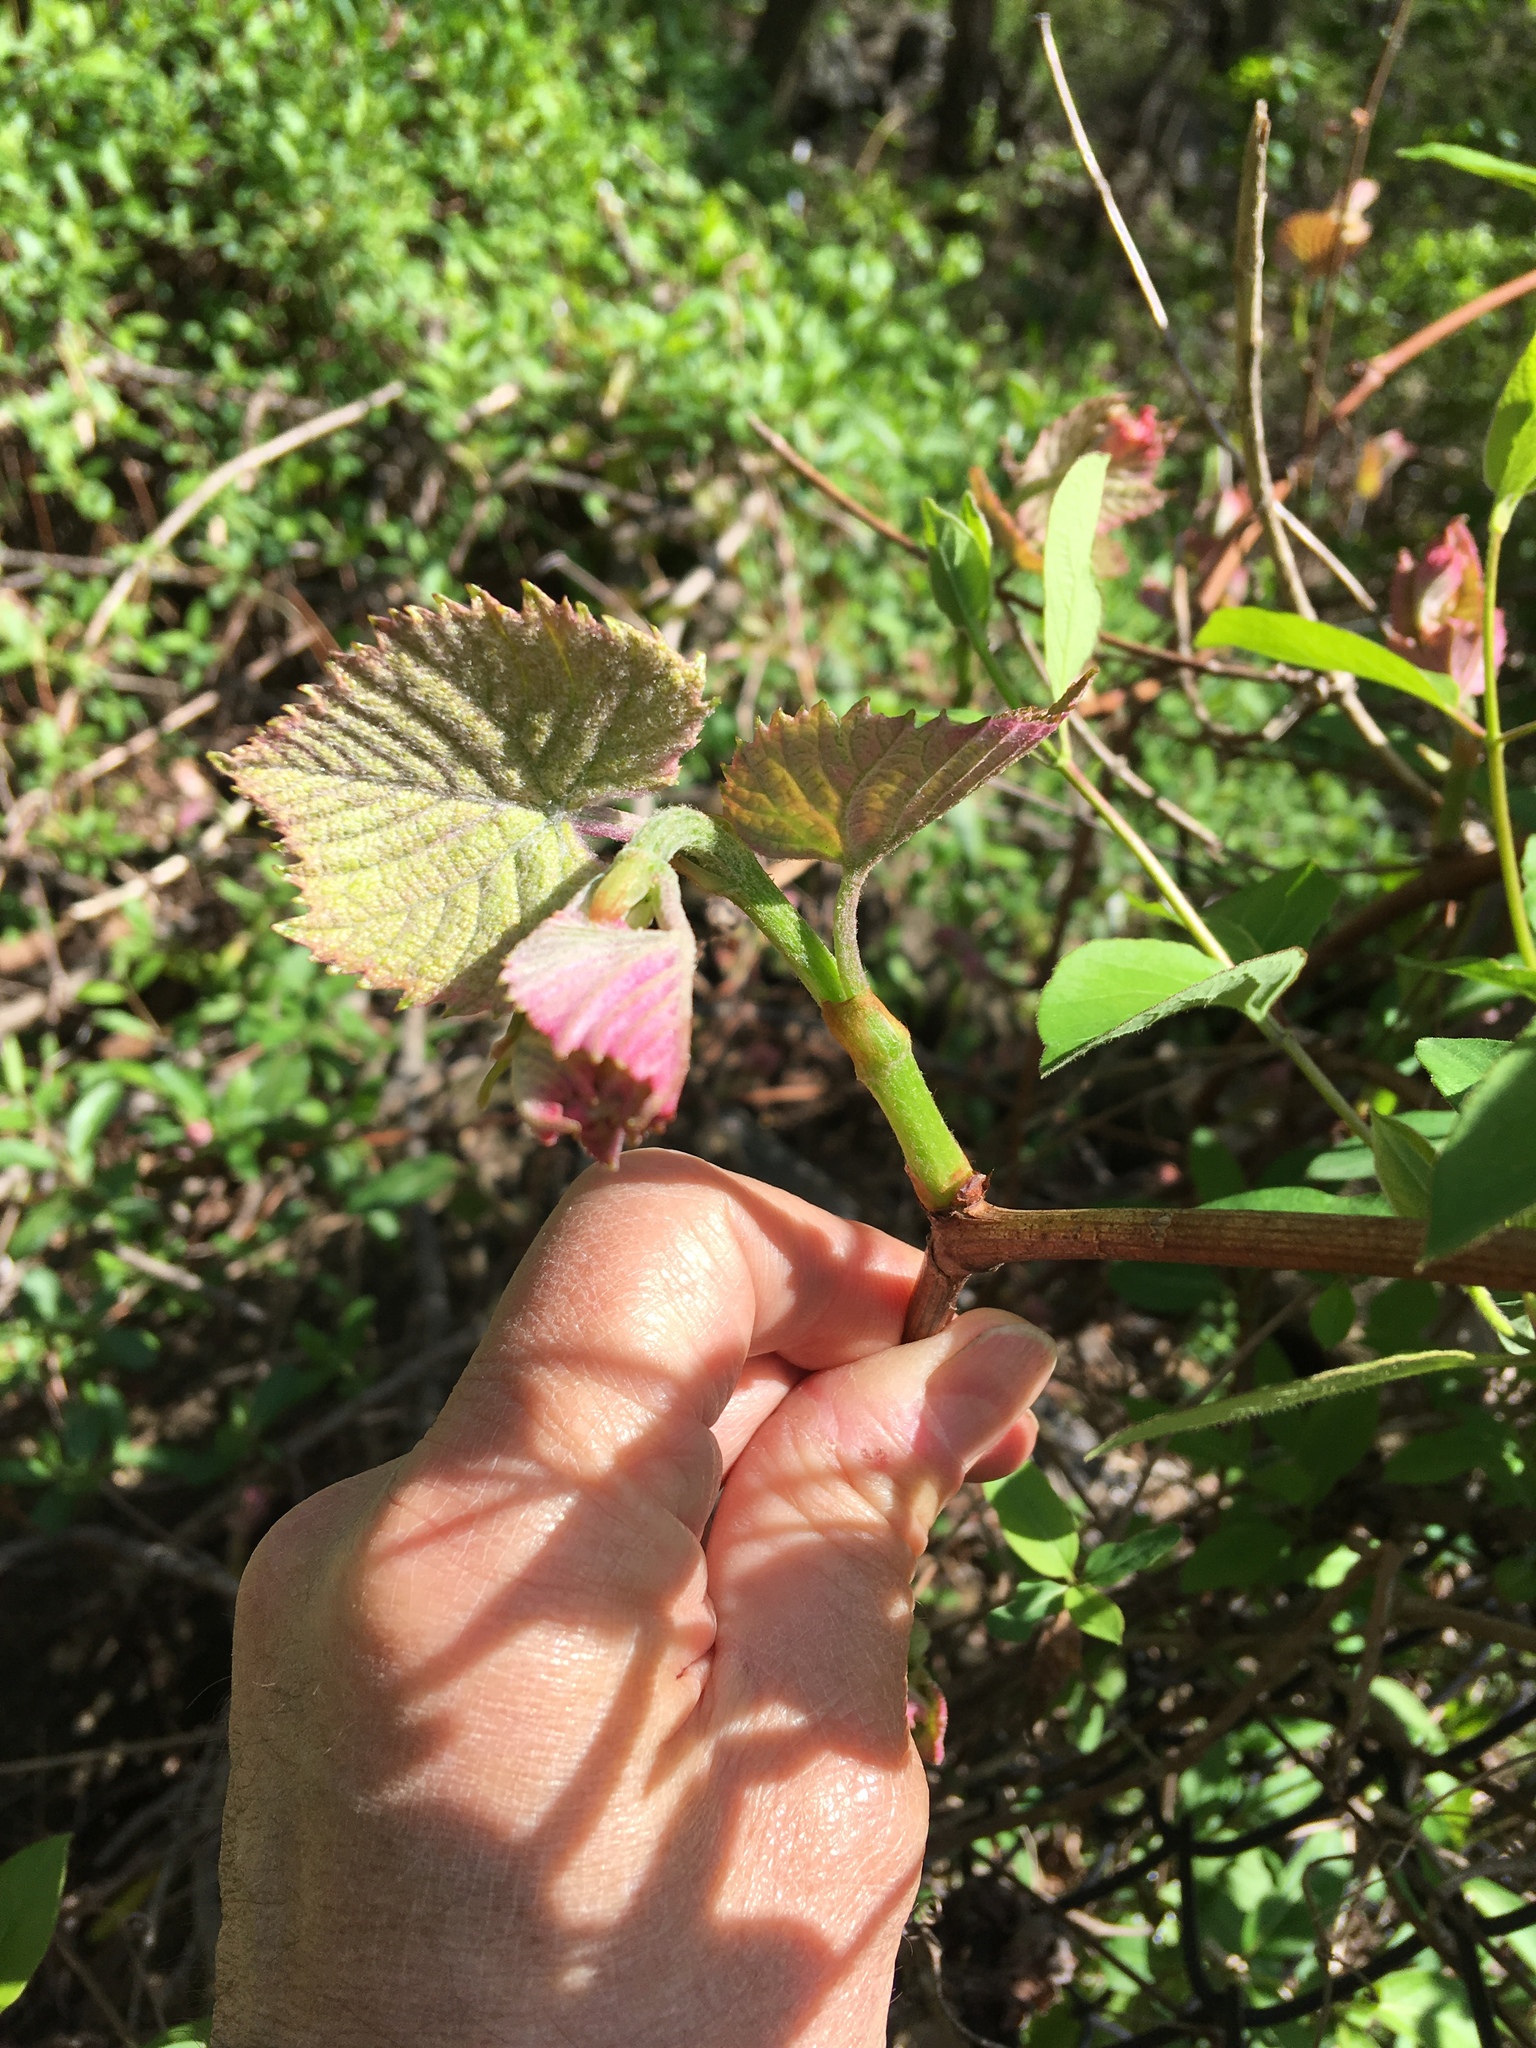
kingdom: Plantae
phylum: Tracheophyta
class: Magnoliopsida
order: Vitales
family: Vitaceae
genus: Vitis
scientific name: Vitis riparia
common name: Frost grape
